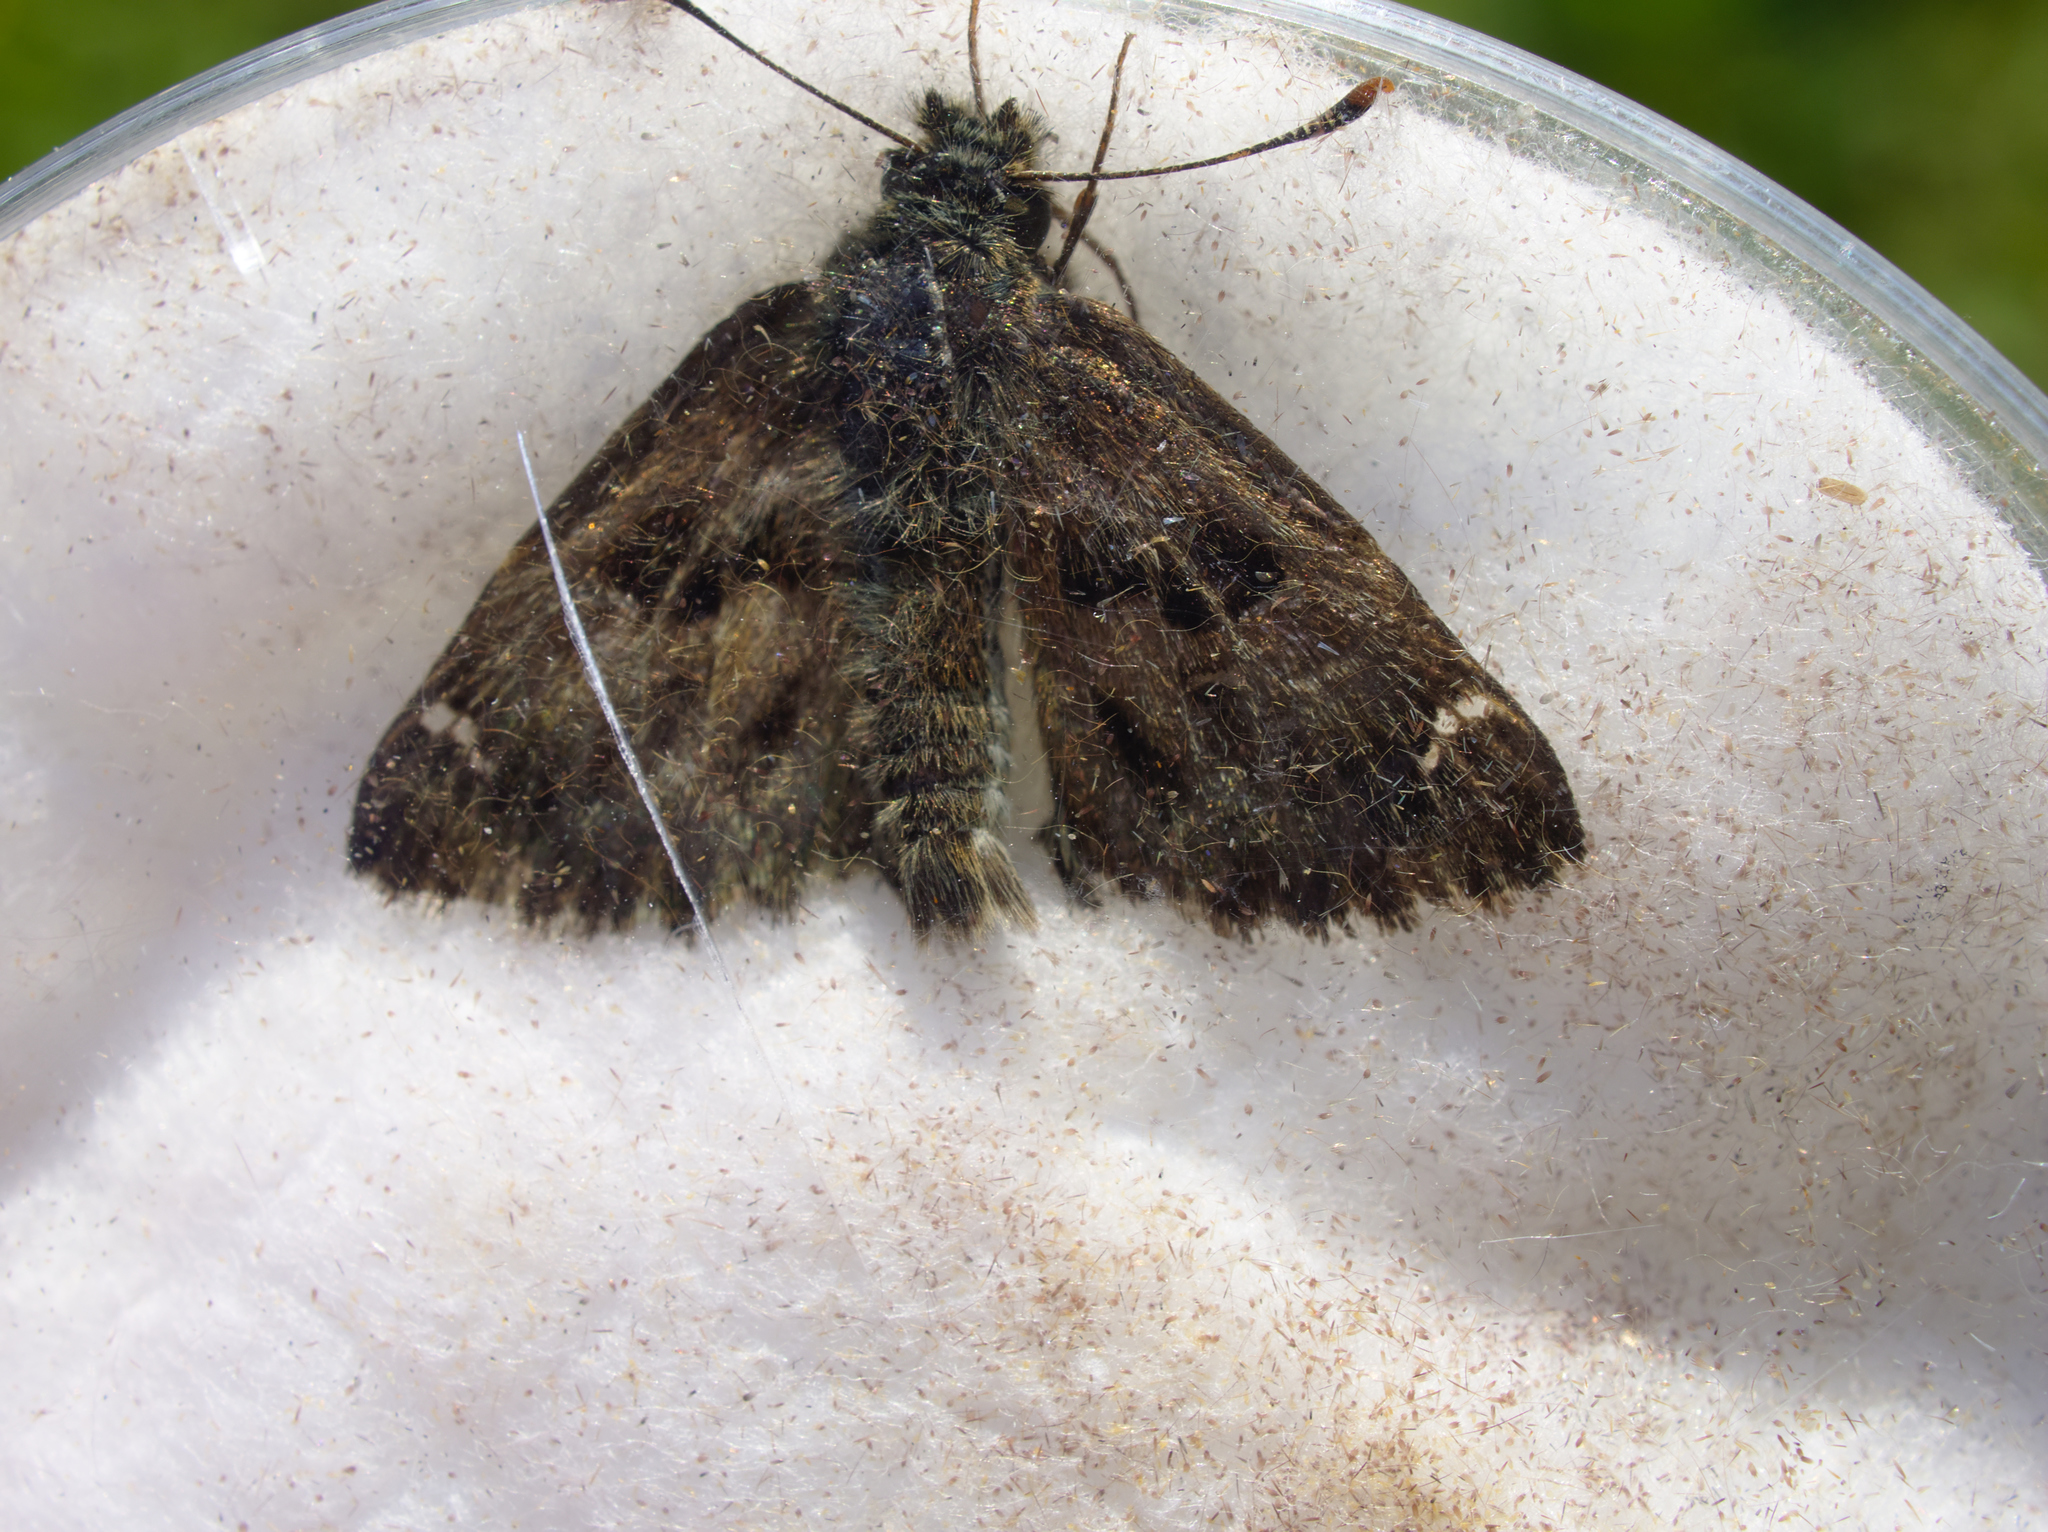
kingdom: Animalia
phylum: Arthropoda
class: Insecta
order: Lepidoptera
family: Hesperiidae
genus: Carcharodus
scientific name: Carcharodus alceae
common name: Mallow skipper
